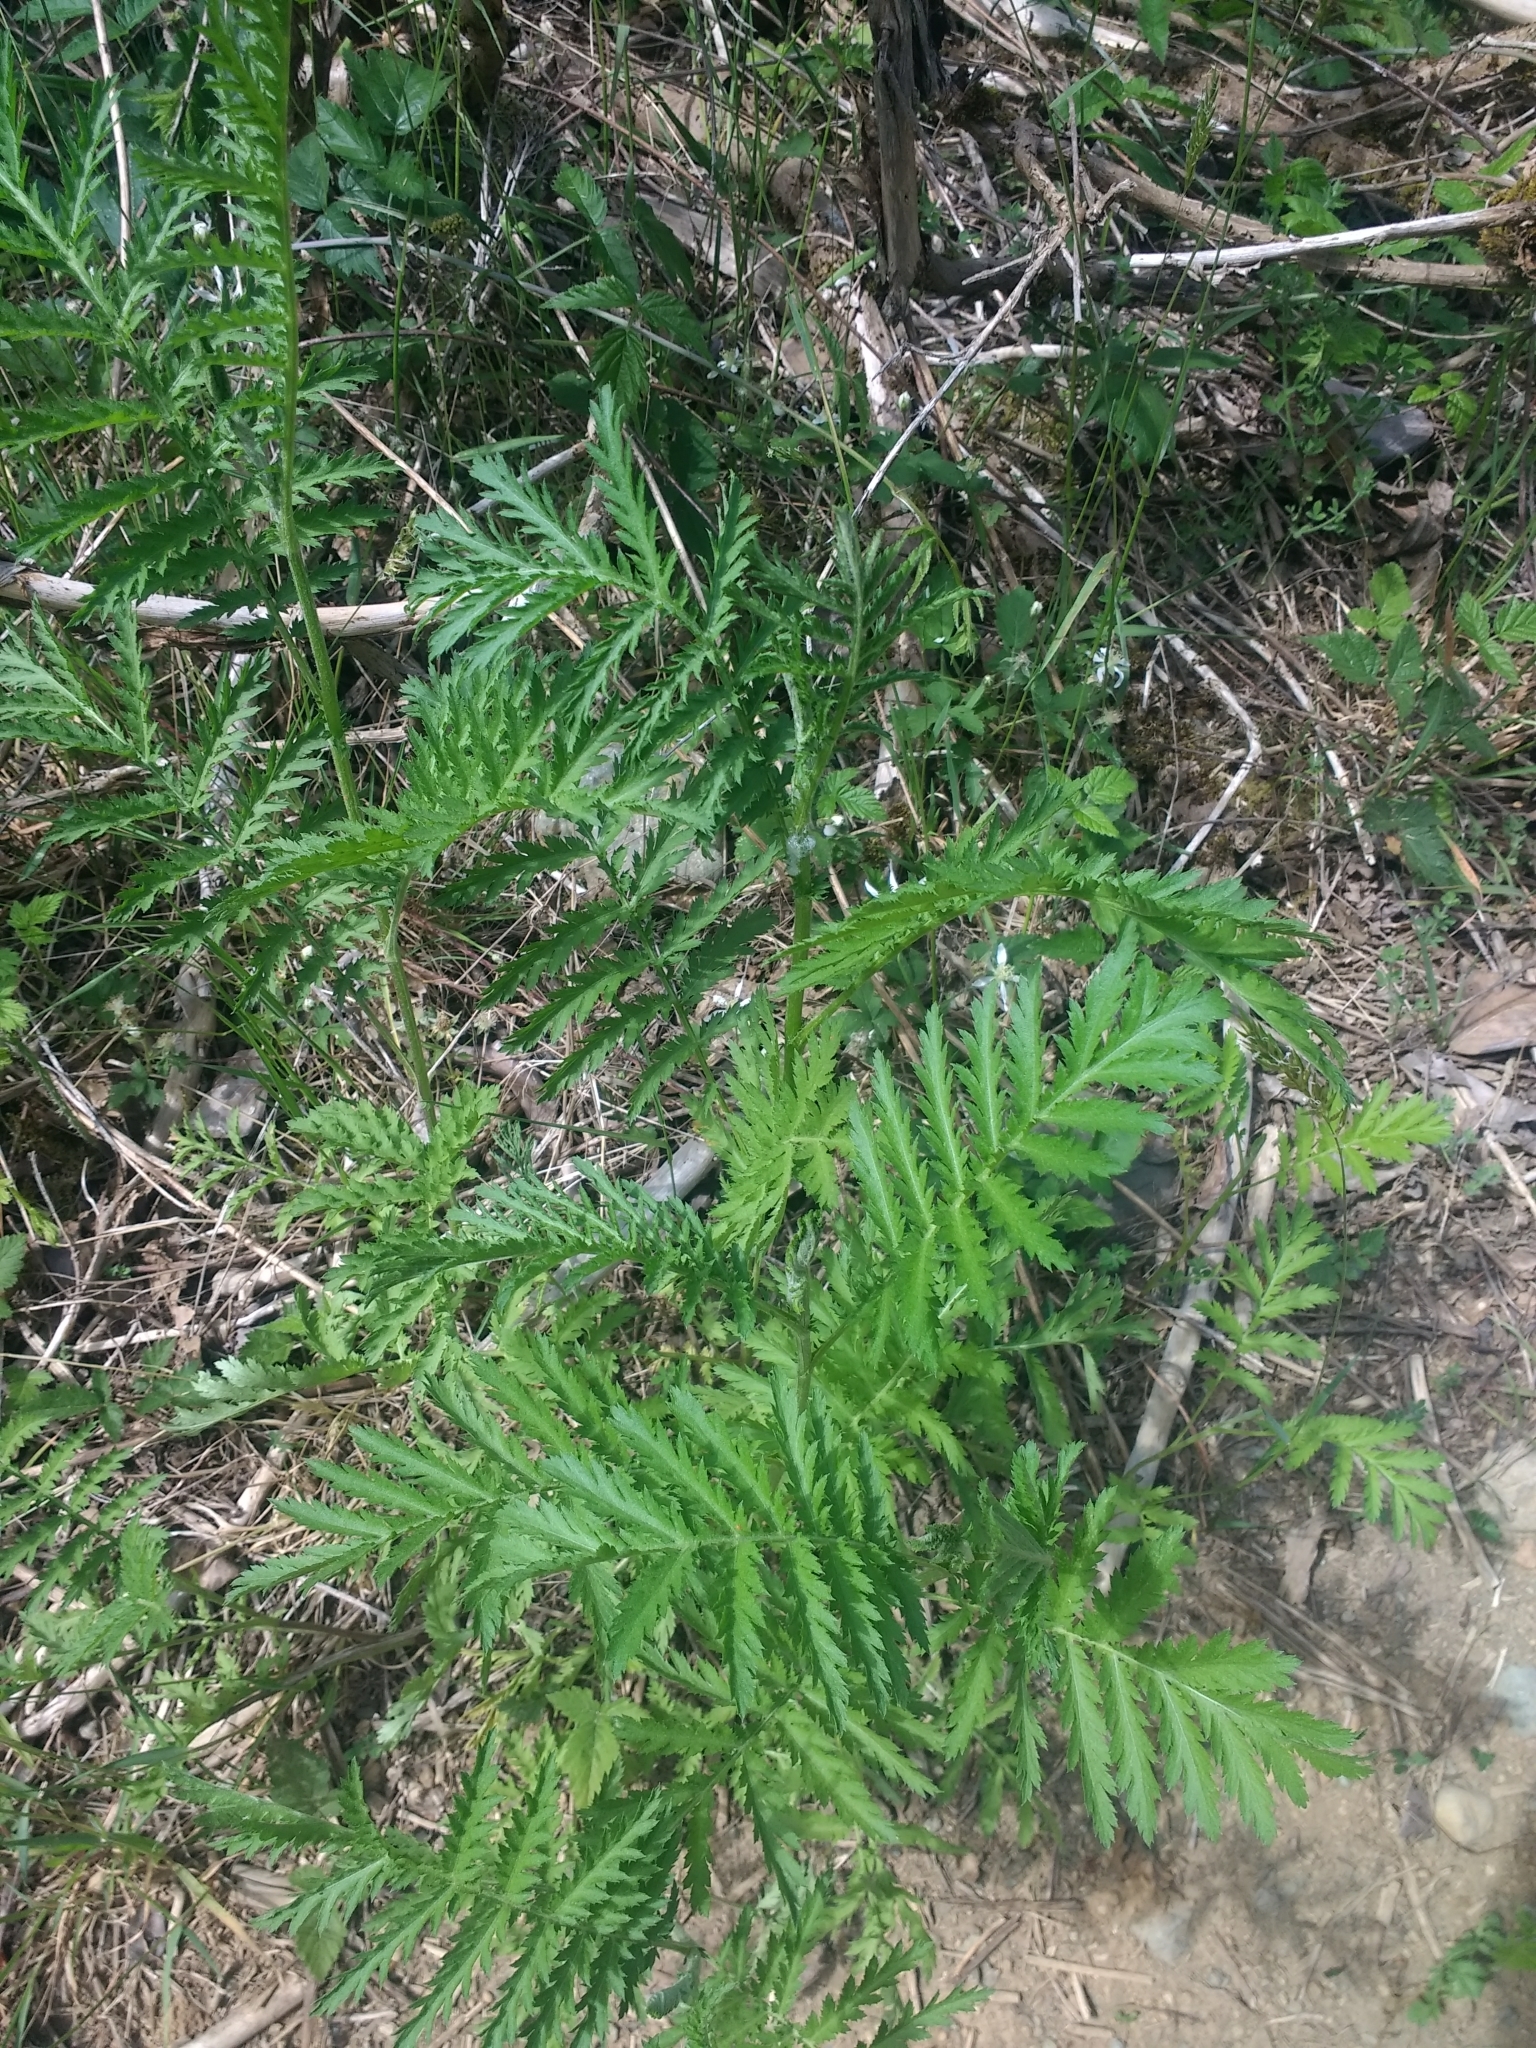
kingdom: Plantae
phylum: Tracheophyta
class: Magnoliopsida
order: Asterales
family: Asteraceae
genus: Tanacetum
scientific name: Tanacetum vulgare
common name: Common tansy
